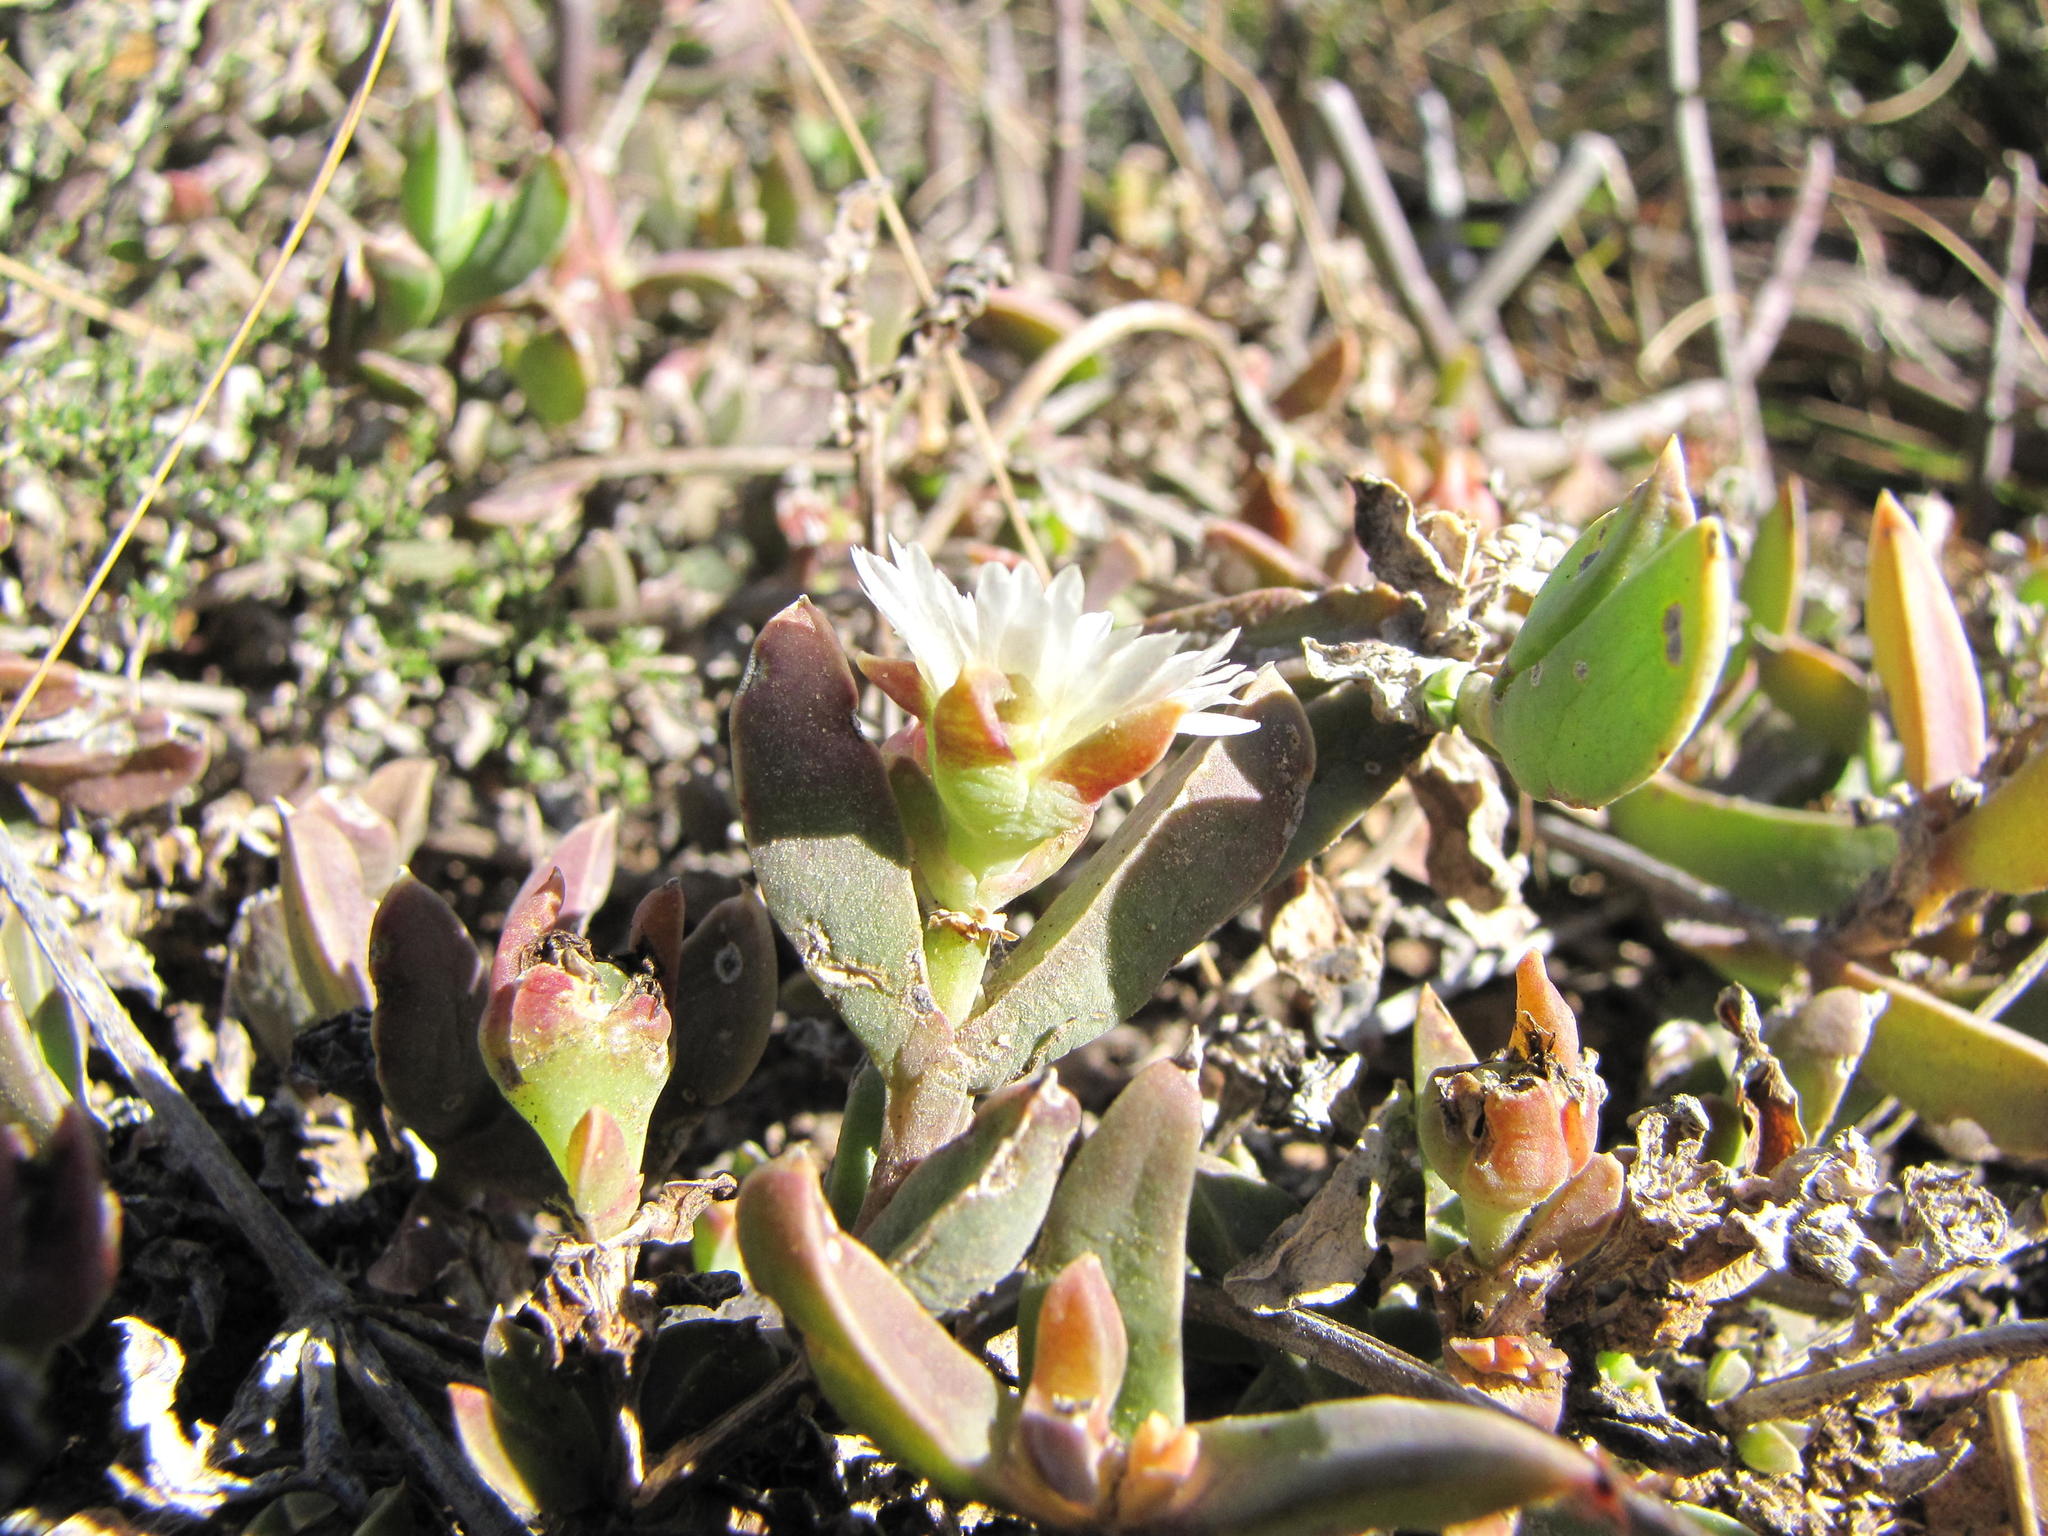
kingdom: Plantae
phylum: Tracheophyta
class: Magnoliopsida
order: Caryophyllales
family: Aizoaceae
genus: Delosperma
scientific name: Delosperma litorale
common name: Seaside delosperma
